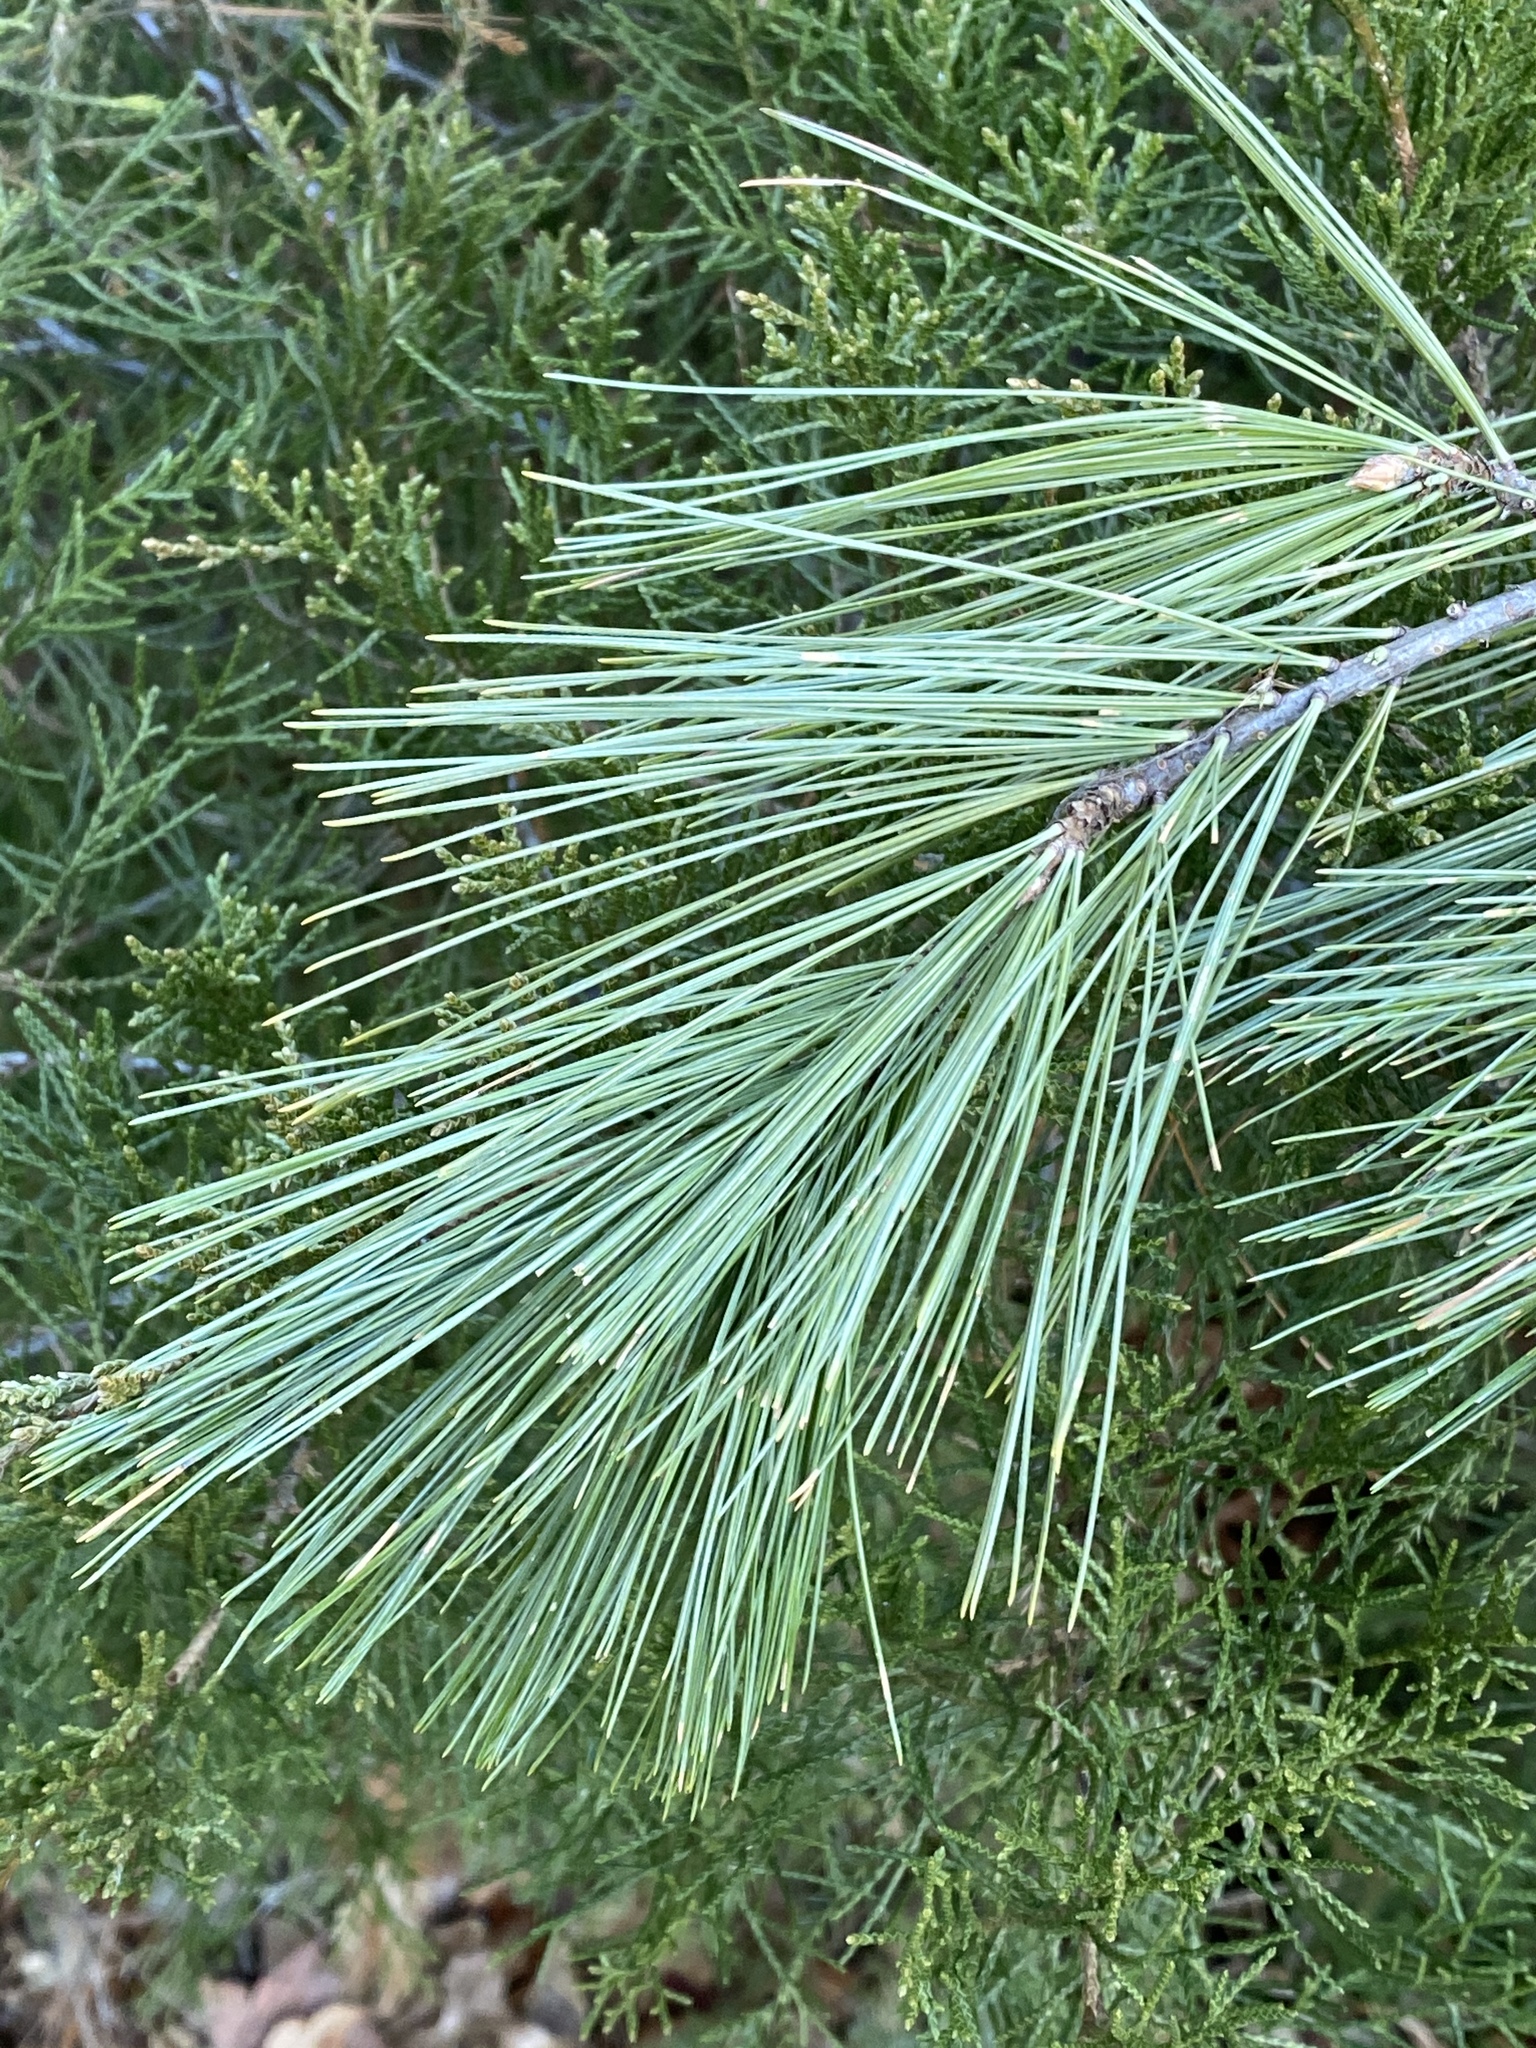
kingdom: Plantae
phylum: Tracheophyta
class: Pinopsida
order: Pinales
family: Pinaceae
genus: Pinus
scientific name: Pinus strobus
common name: Weymouth pine
